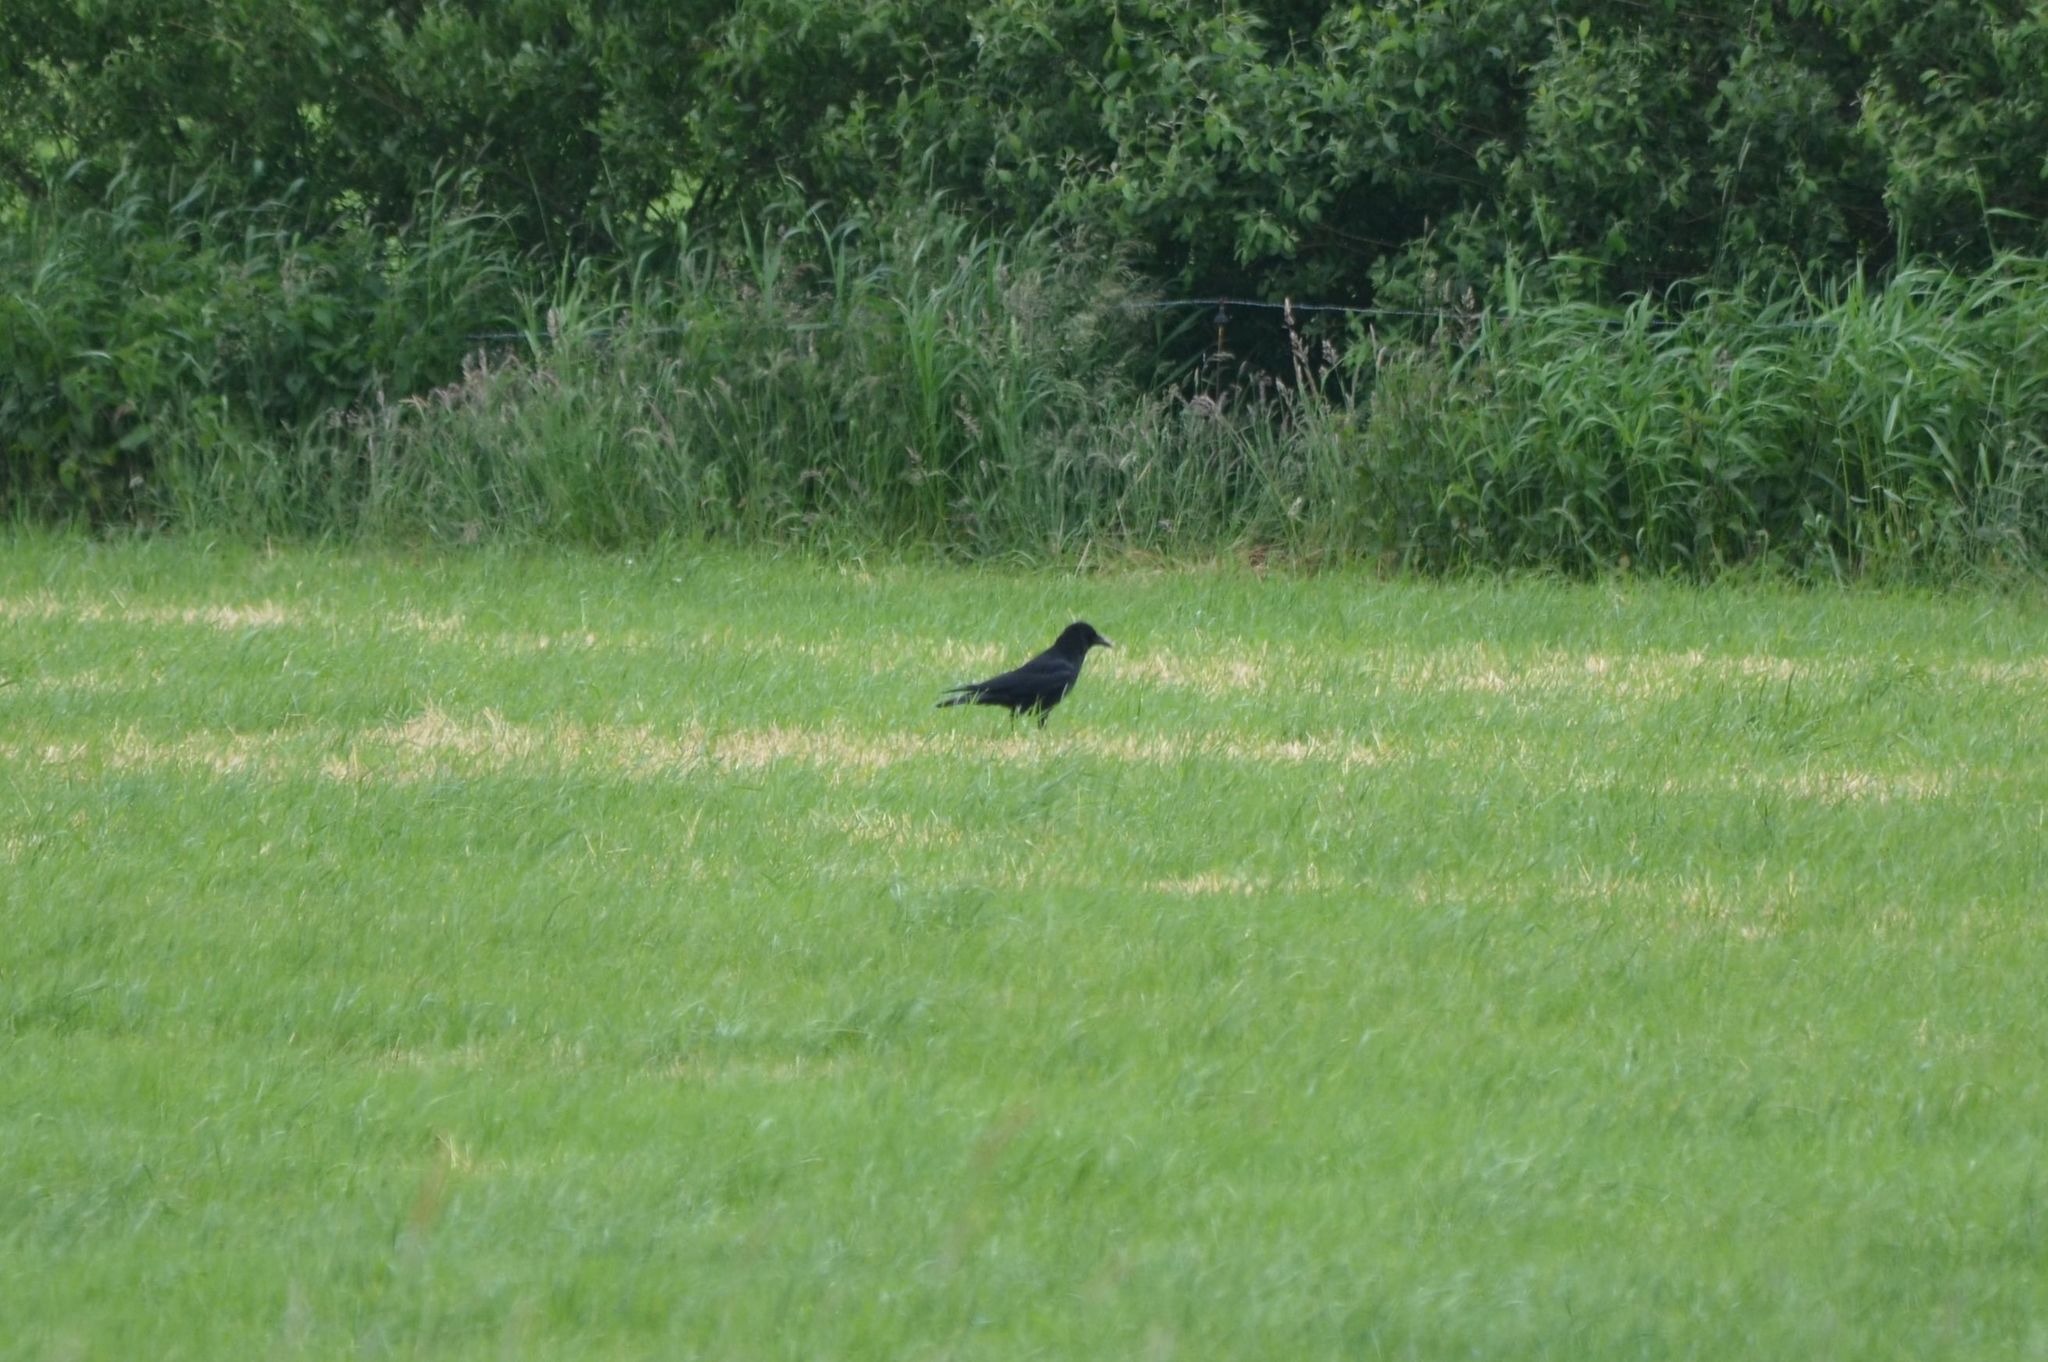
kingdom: Animalia
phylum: Chordata
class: Aves
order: Passeriformes
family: Corvidae
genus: Corvus
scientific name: Corvus corone
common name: Carrion crow
